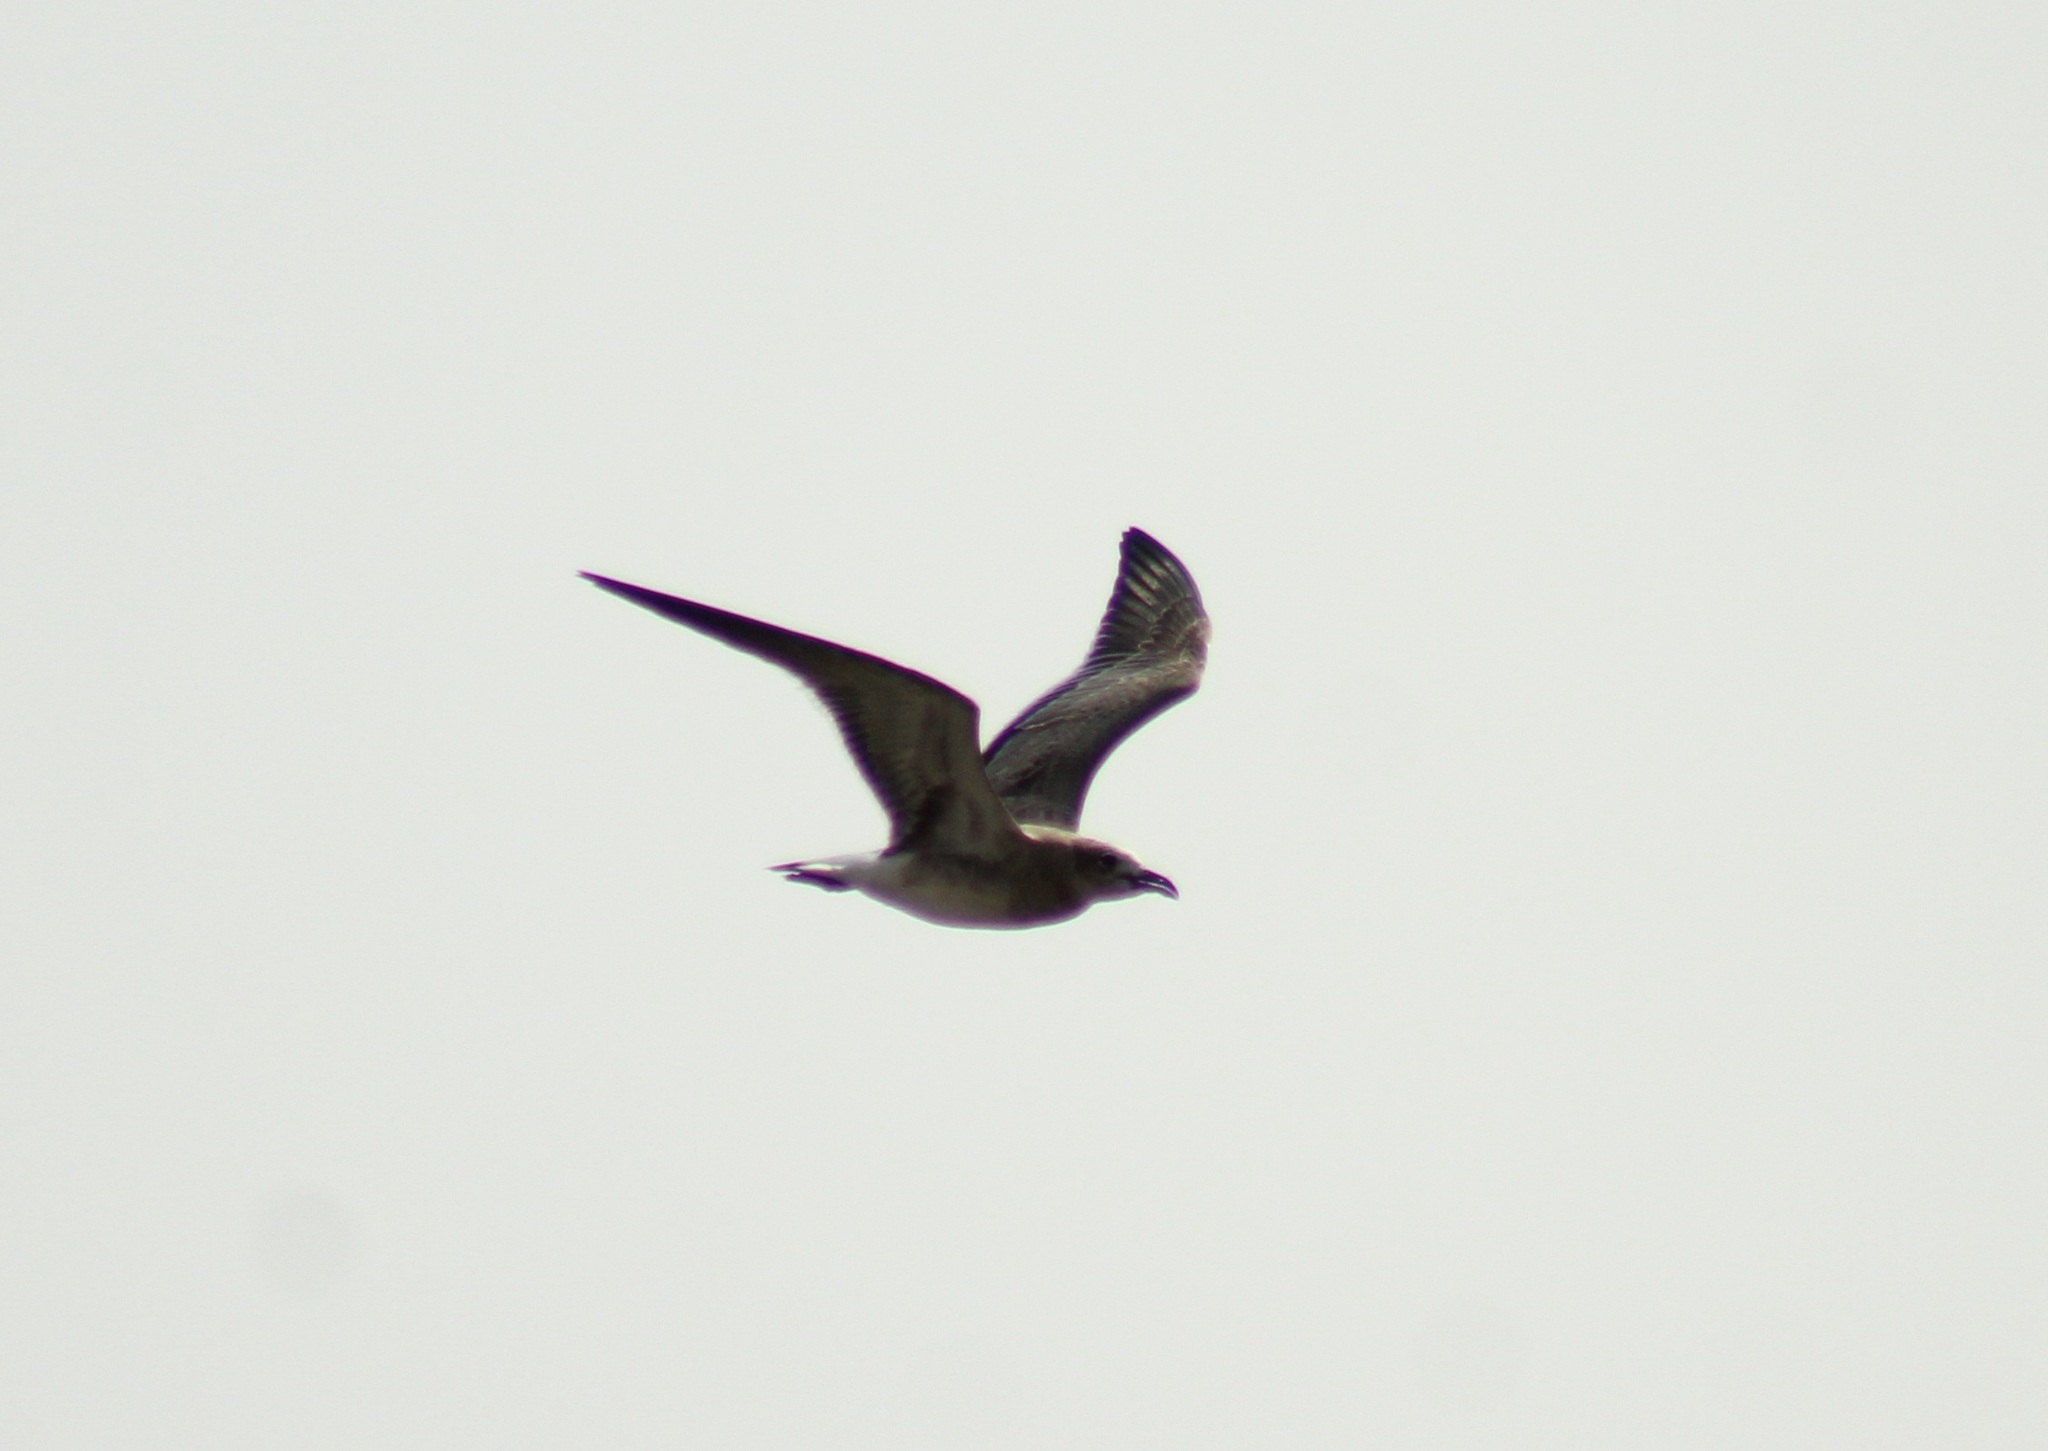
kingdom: Animalia
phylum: Chordata
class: Aves
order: Charadriiformes
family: Laridae
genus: Leucophaeus
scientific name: Leucophaeus atricilla
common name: Laughing gull
